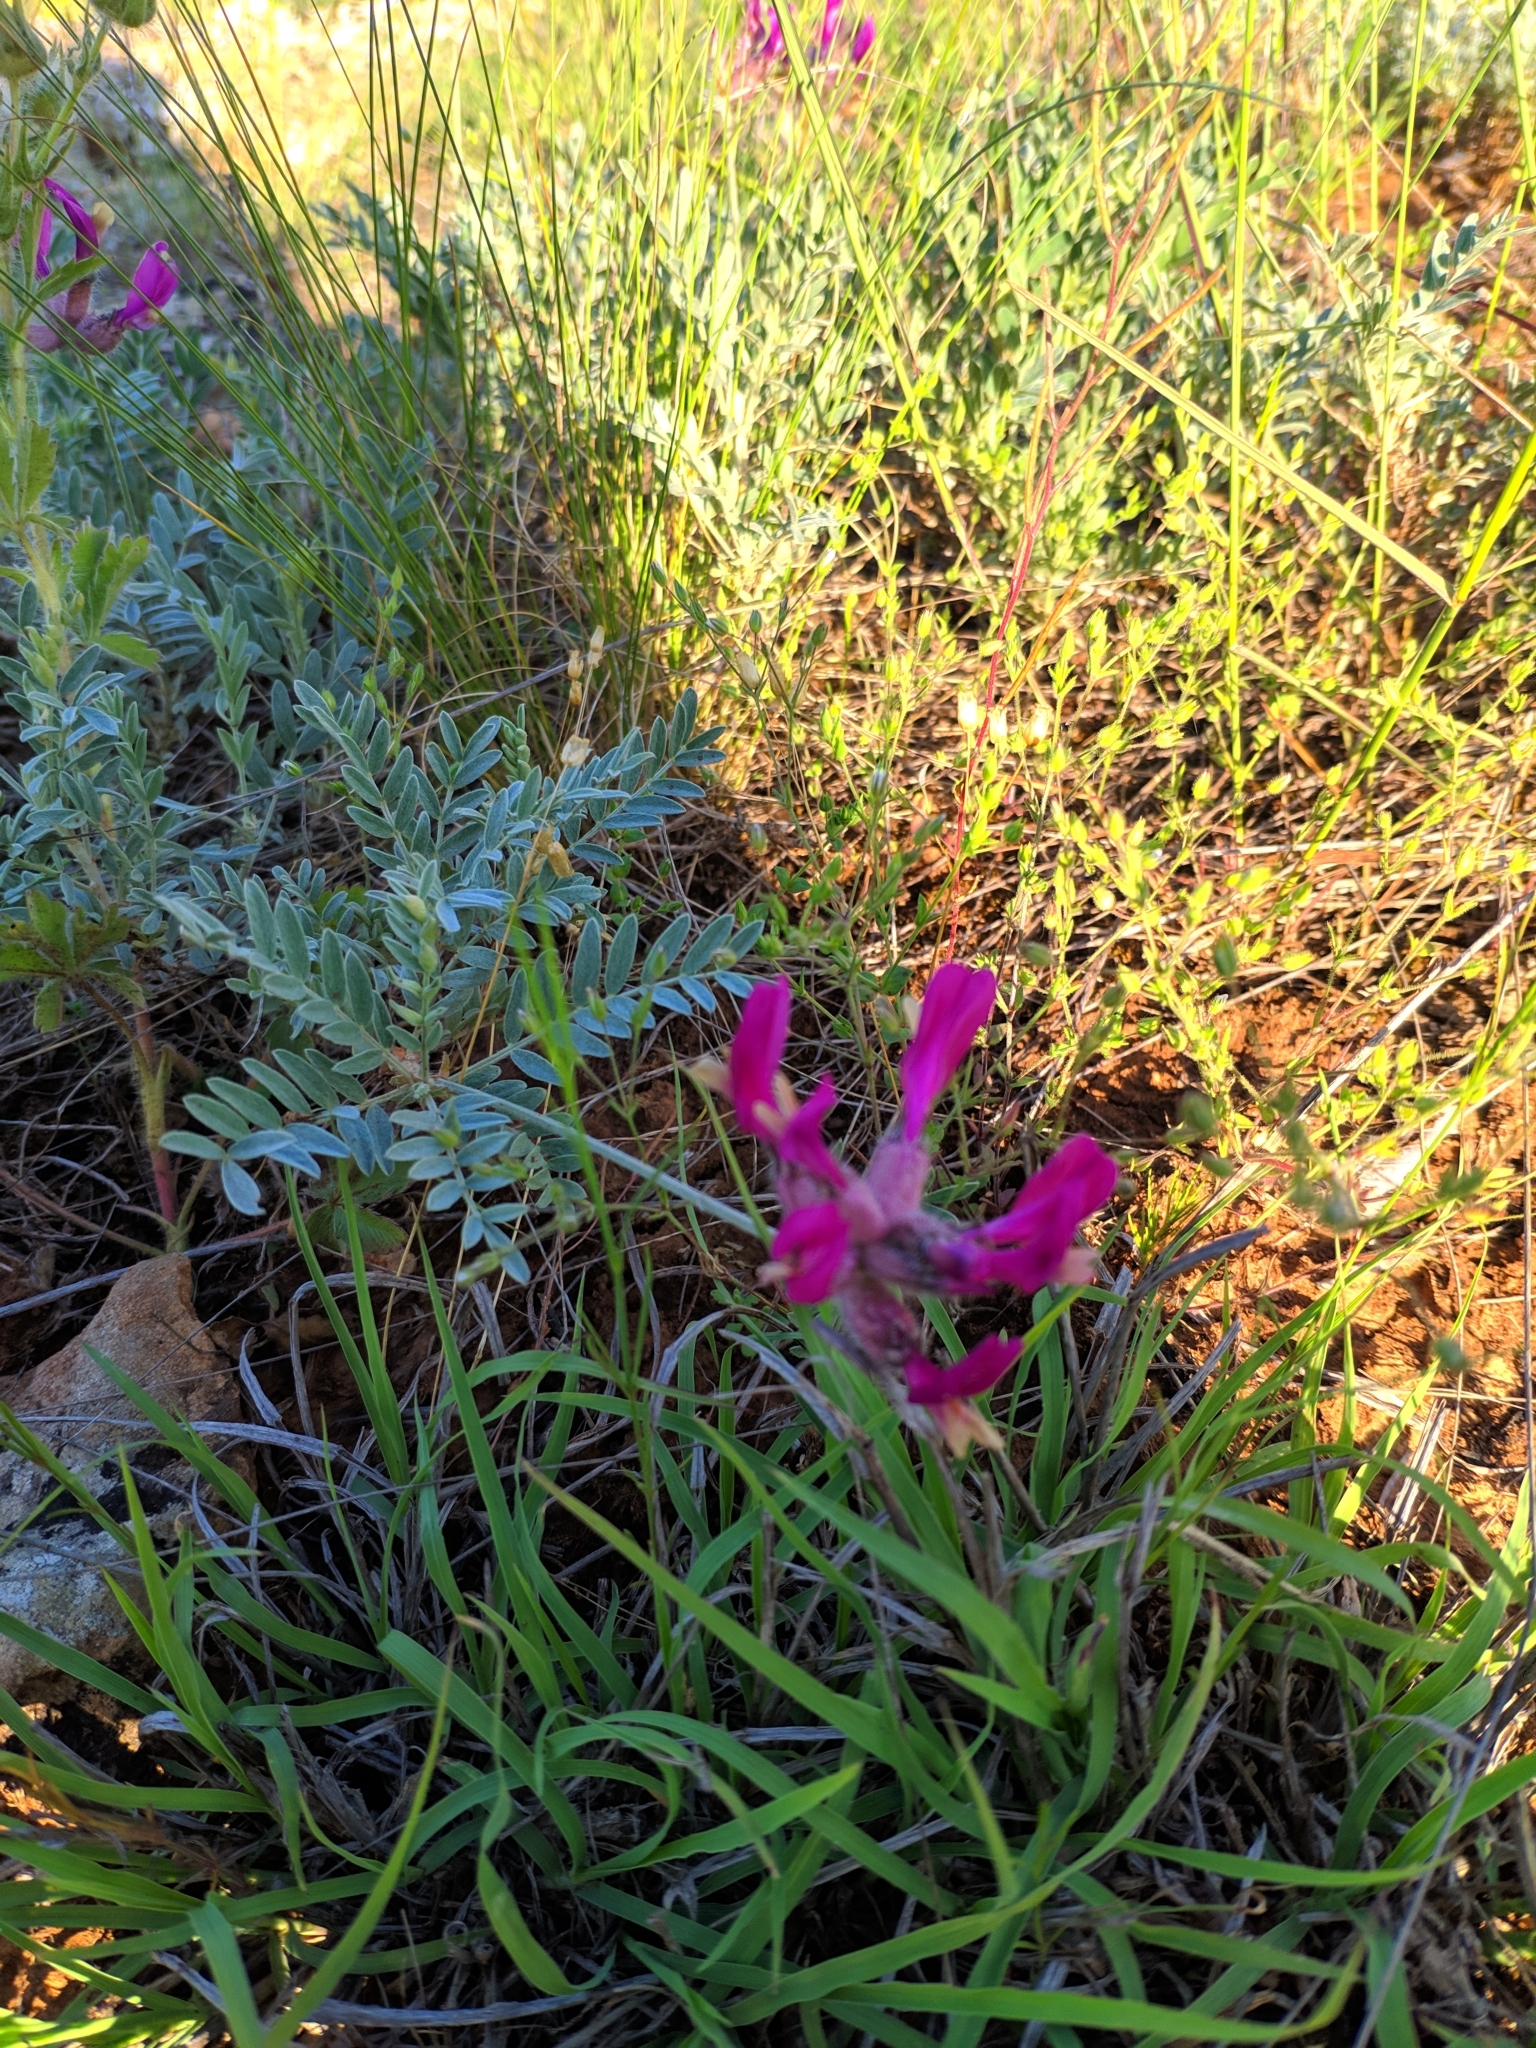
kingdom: Plantae
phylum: Tracheophyta
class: Magnoliopsida
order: Fabales
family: Fabaceae
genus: Astragalus
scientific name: Astragalus vesicarius
